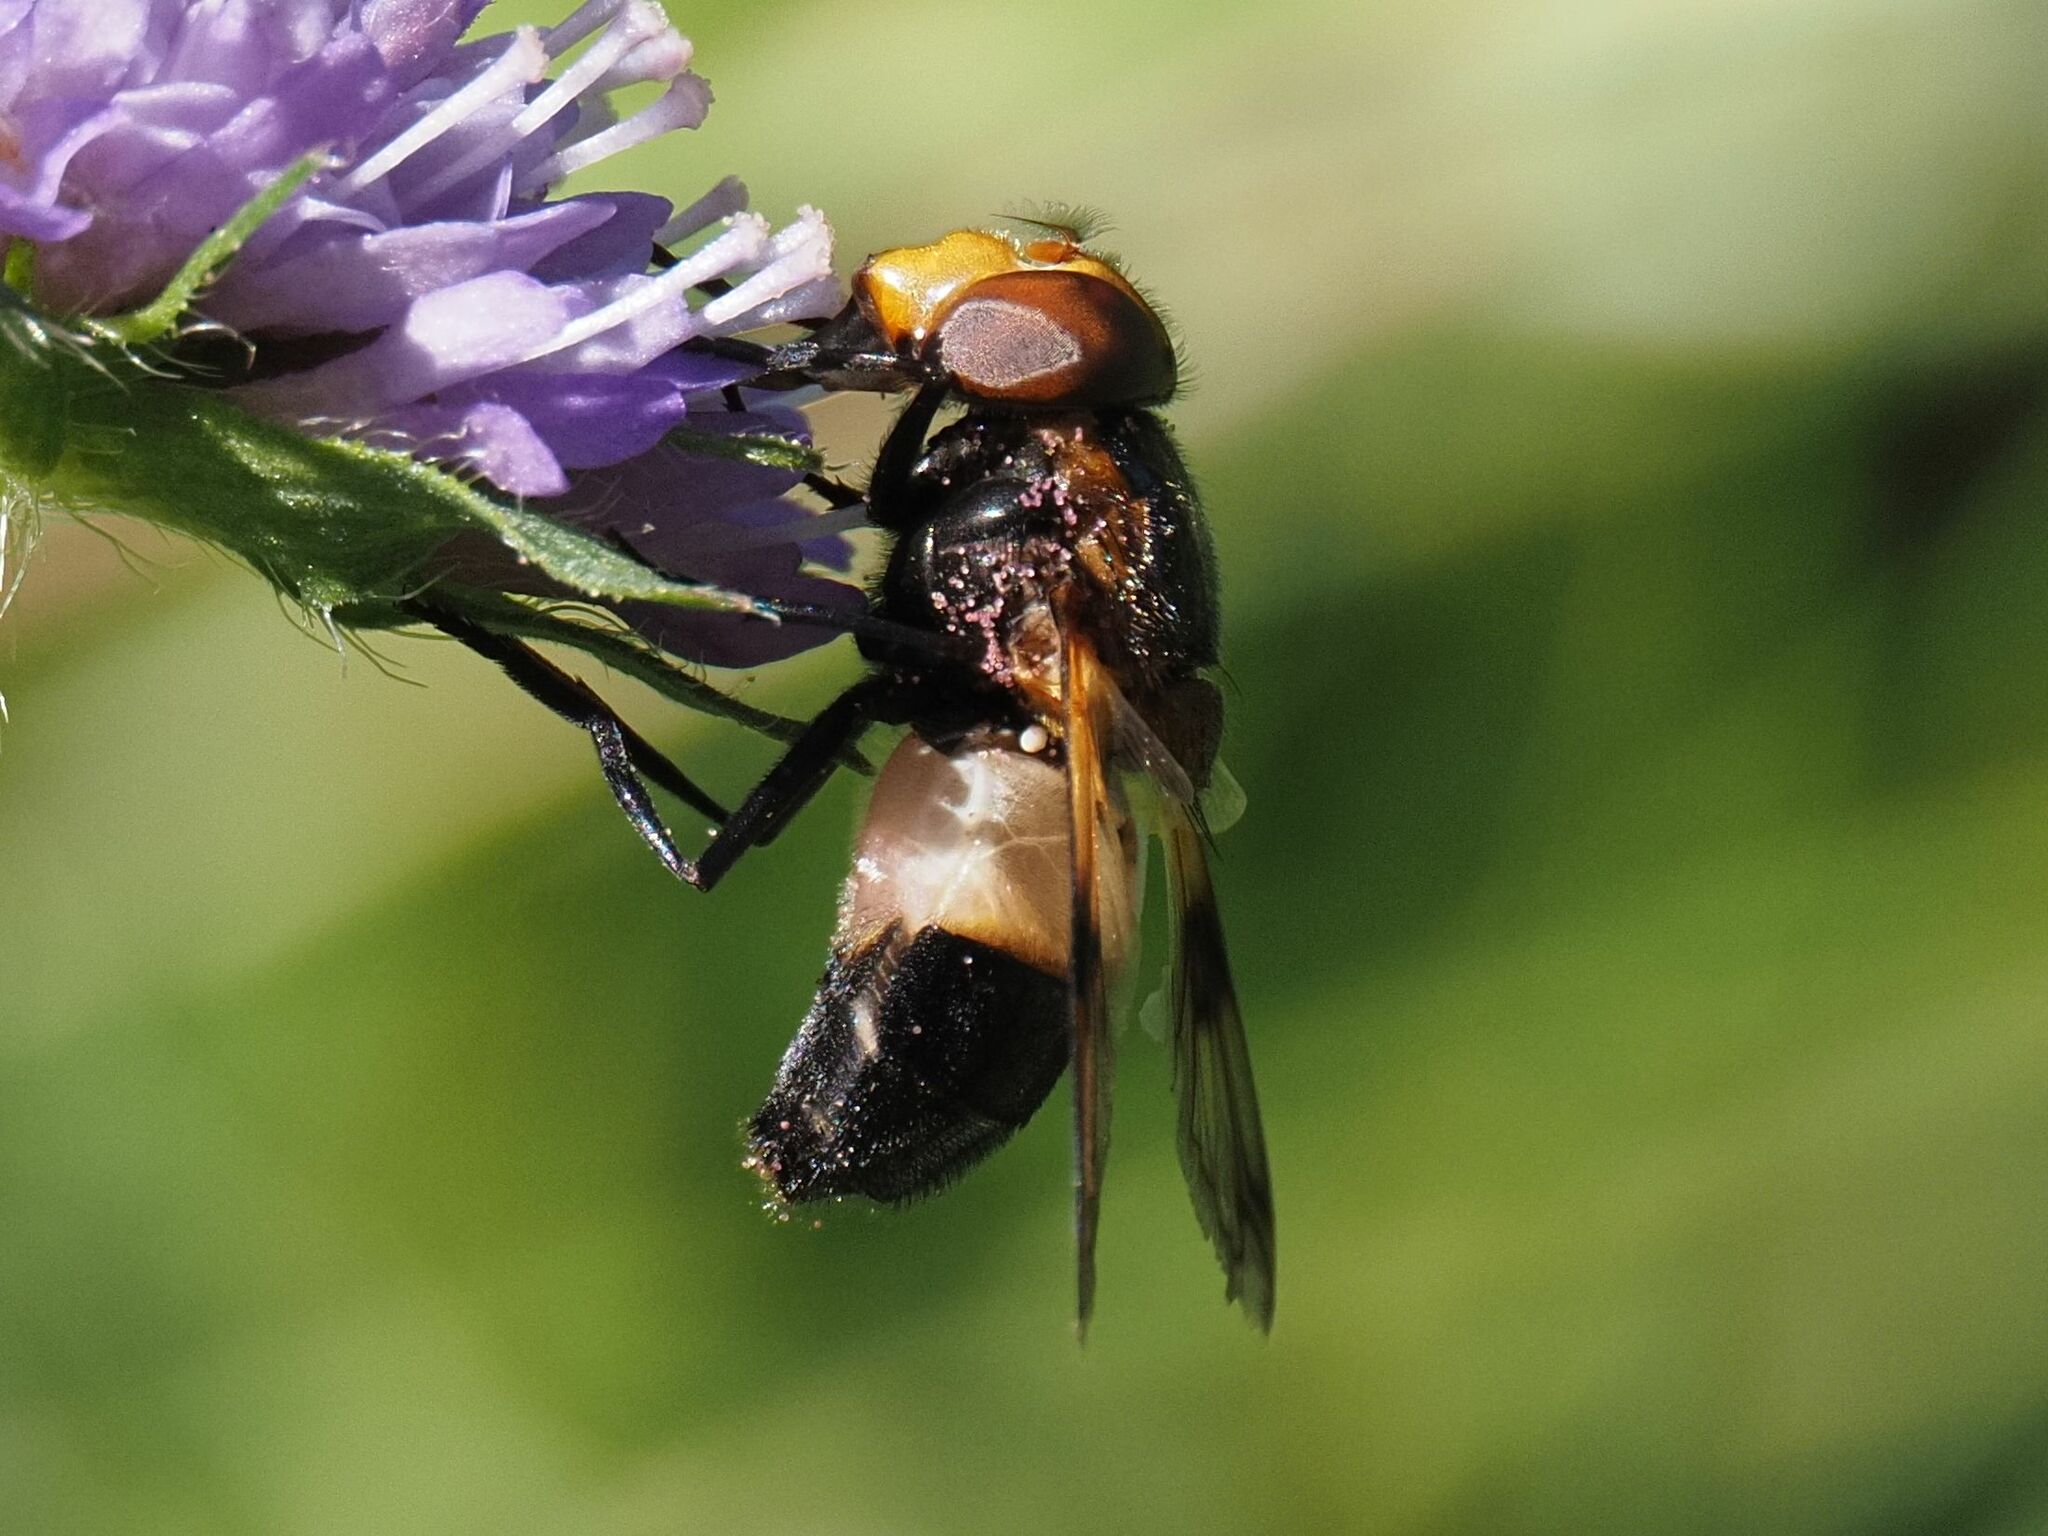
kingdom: Animalia
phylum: Arthropoda
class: Insecta
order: Diptera
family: Syrphidae
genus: Volucella
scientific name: Volucella pellucens
